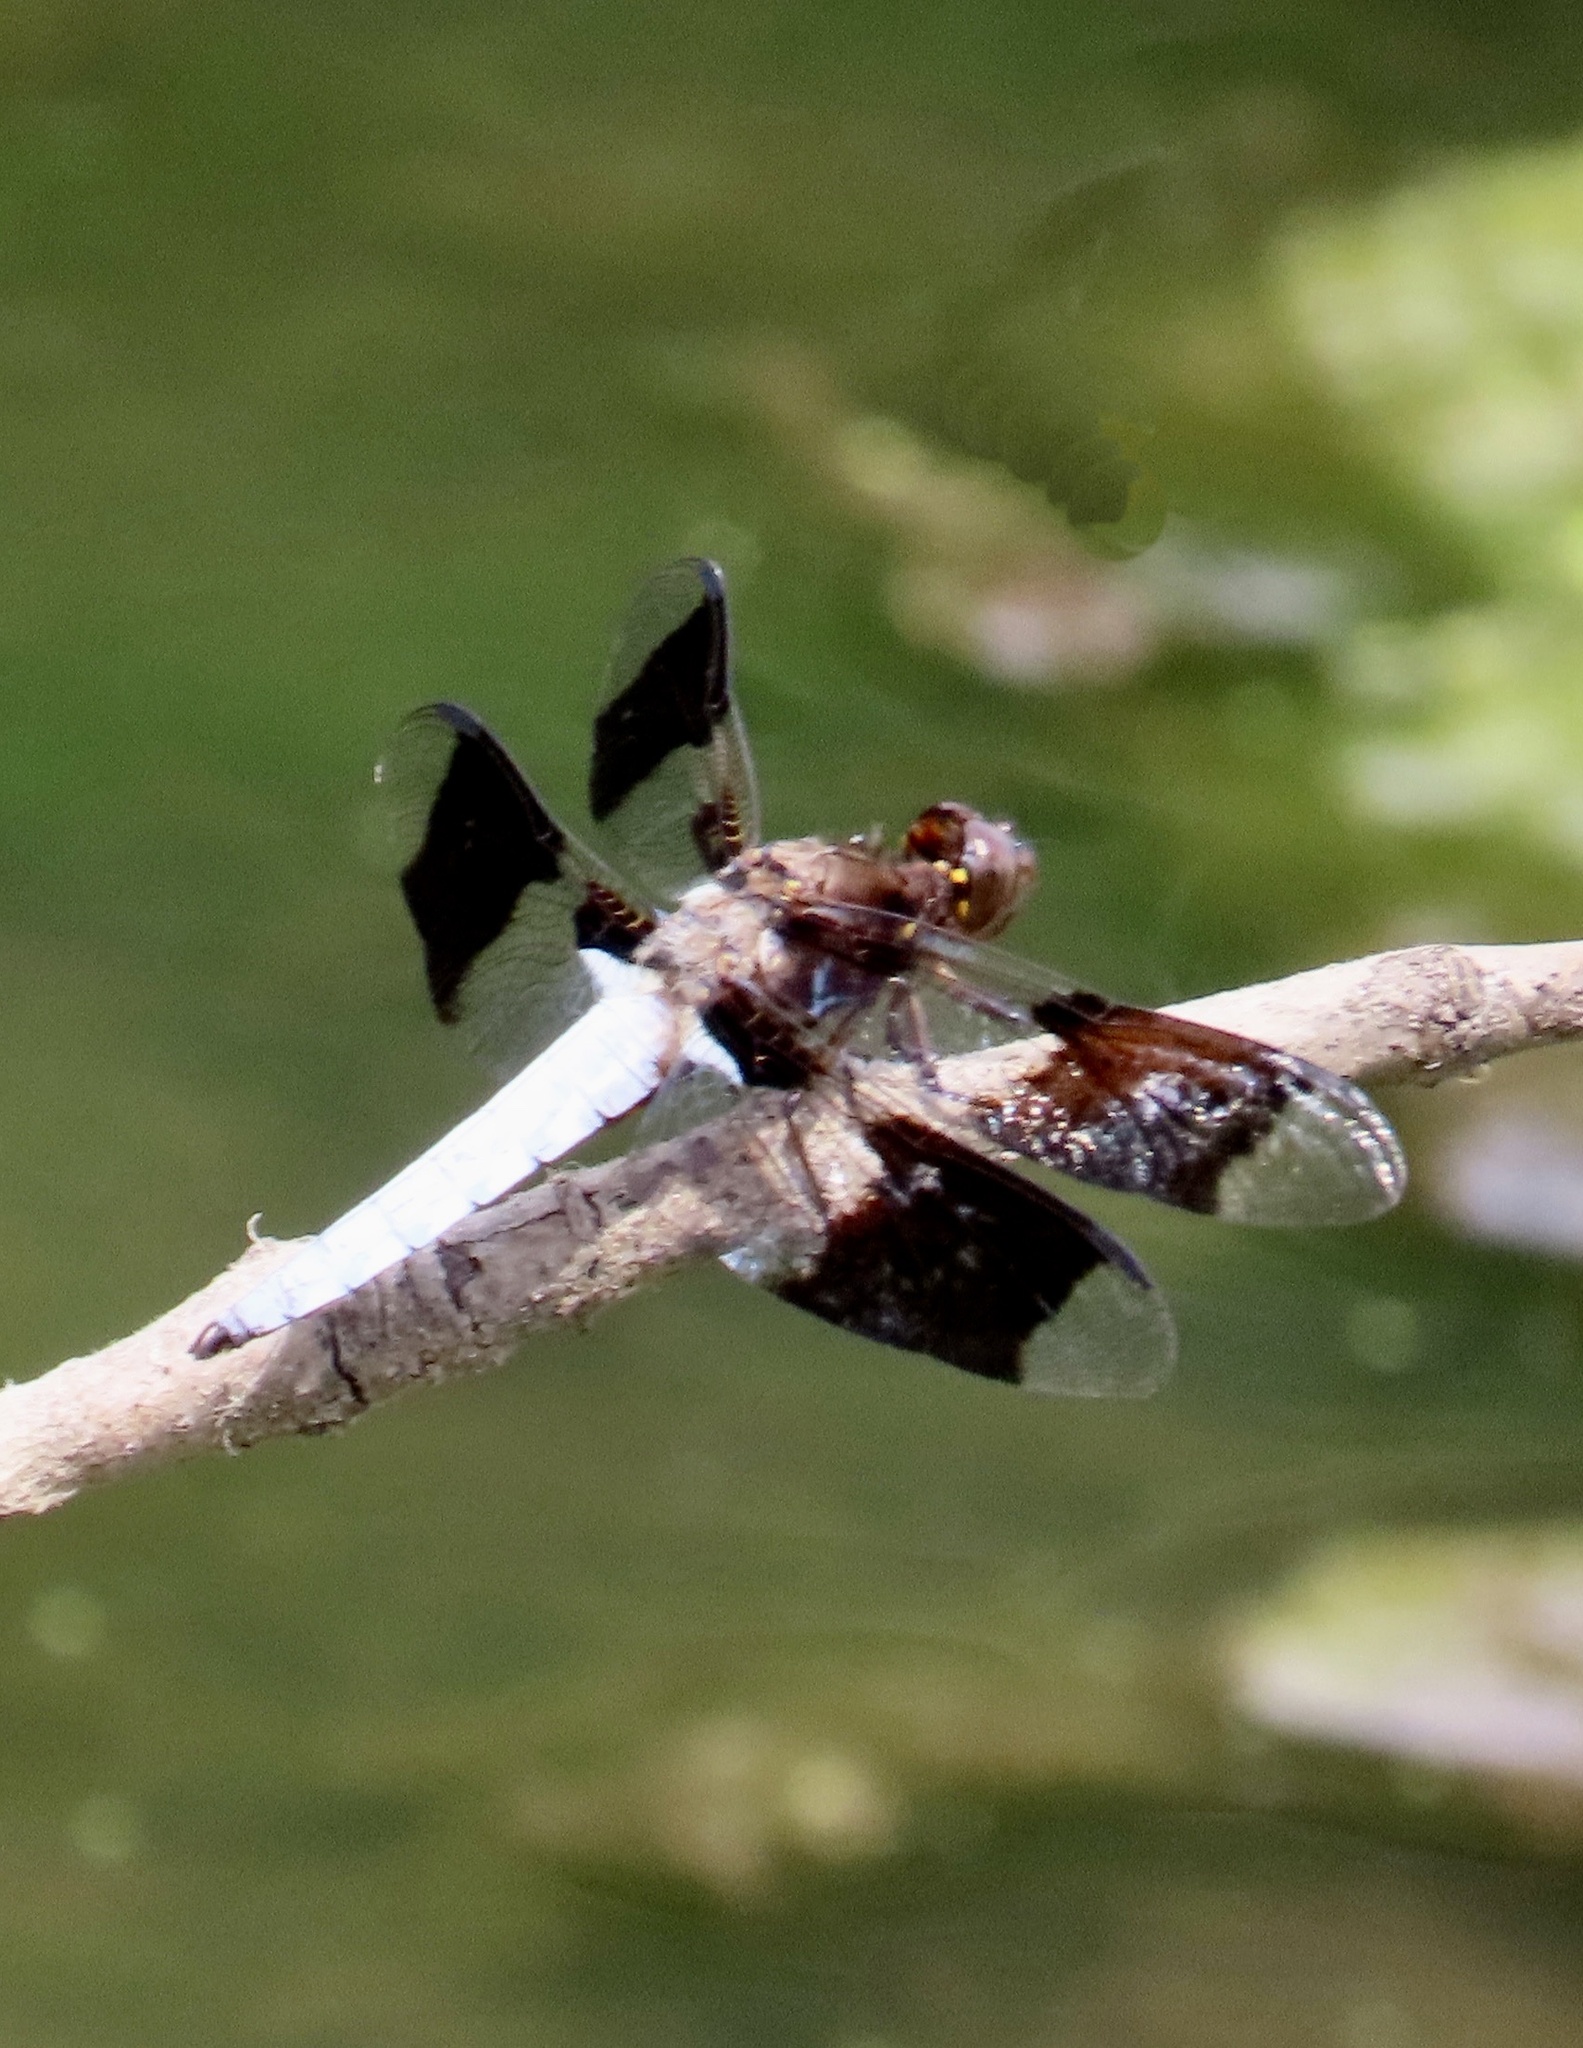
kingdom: Animalia
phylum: Arthropoda
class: Insecta
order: Odonata
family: Libellulidae
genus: Plathemis
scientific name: Plathemis lydia
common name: Common whitetail
